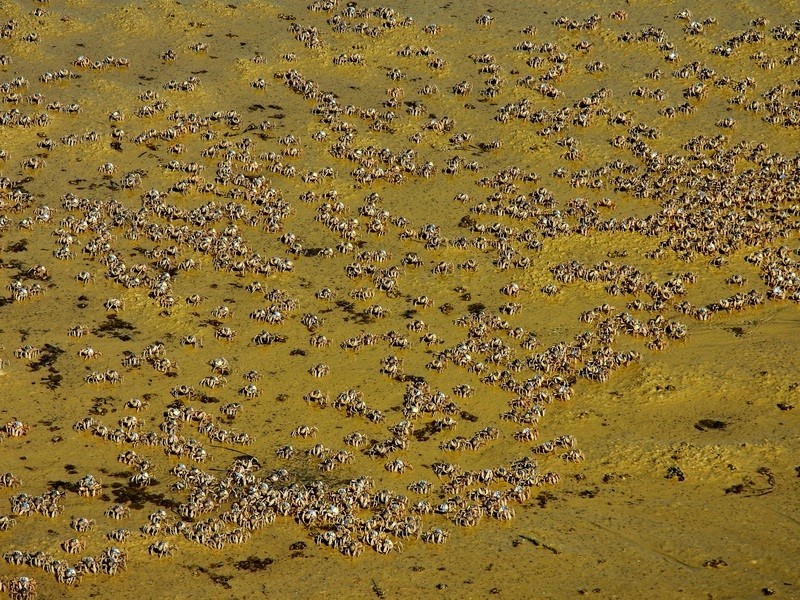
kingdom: Animalia
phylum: Arthropoda
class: Malacostraca
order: Decapoda
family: Mictyridae
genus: Mictyris
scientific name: Mictyris longicarpus
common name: Light-blue soldier crab
